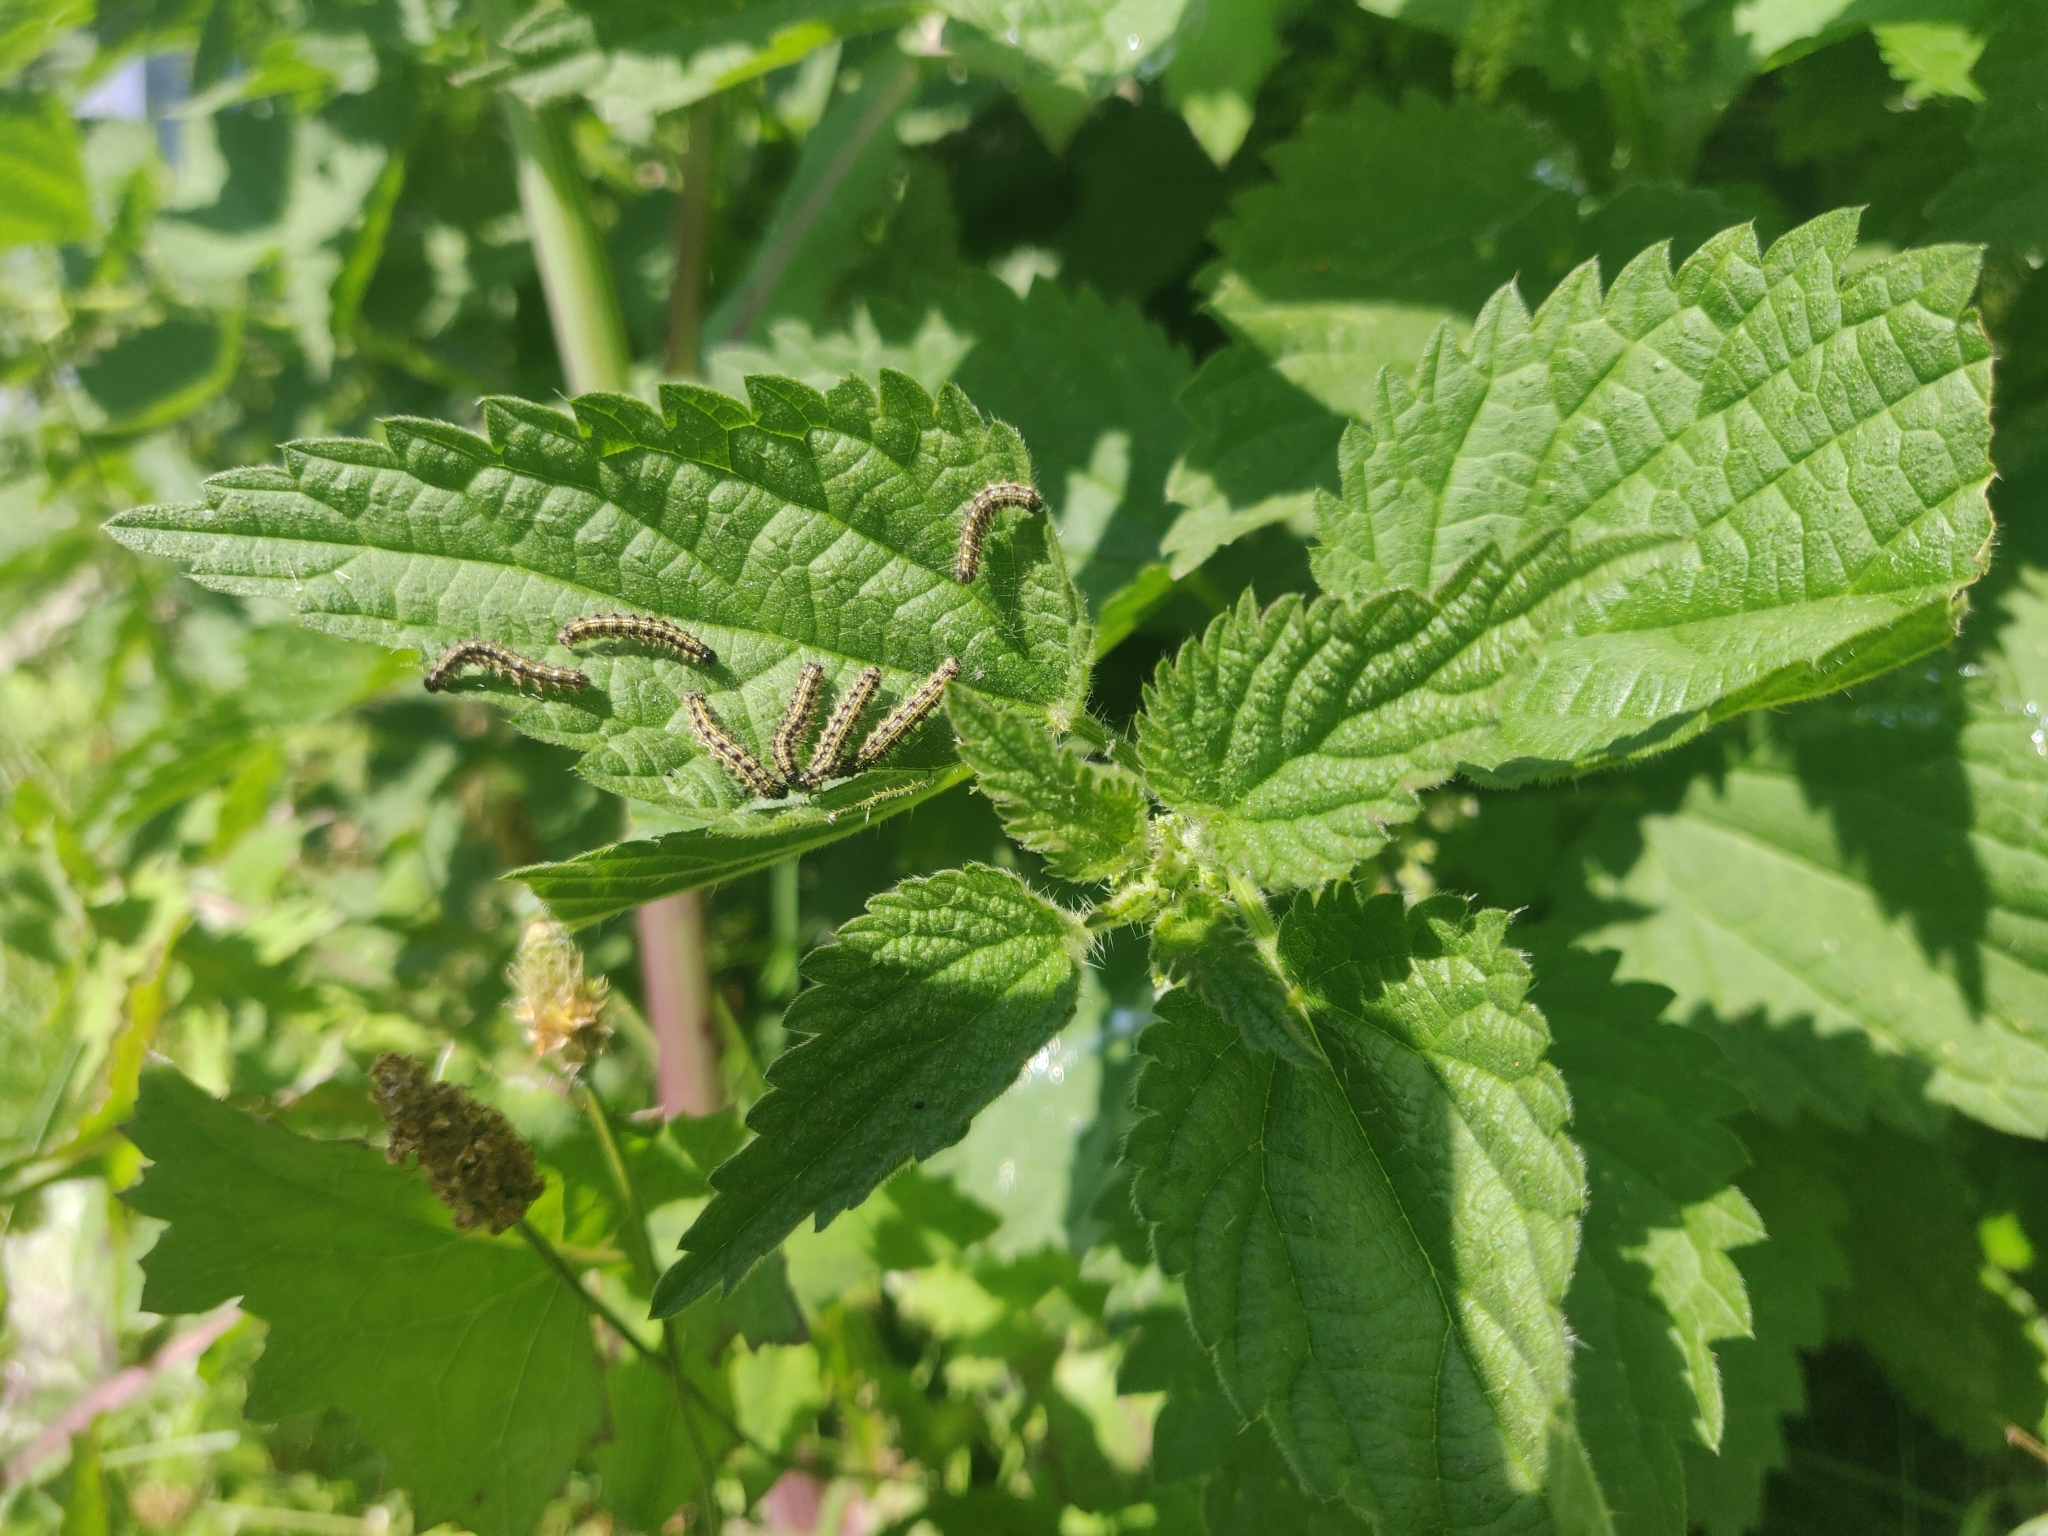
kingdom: Animalia
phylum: Arthropoda
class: Insecta
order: Lepidoptera
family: Nymphalidae
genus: Aglais
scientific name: Aglais urticae
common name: Small tortoiseshell
